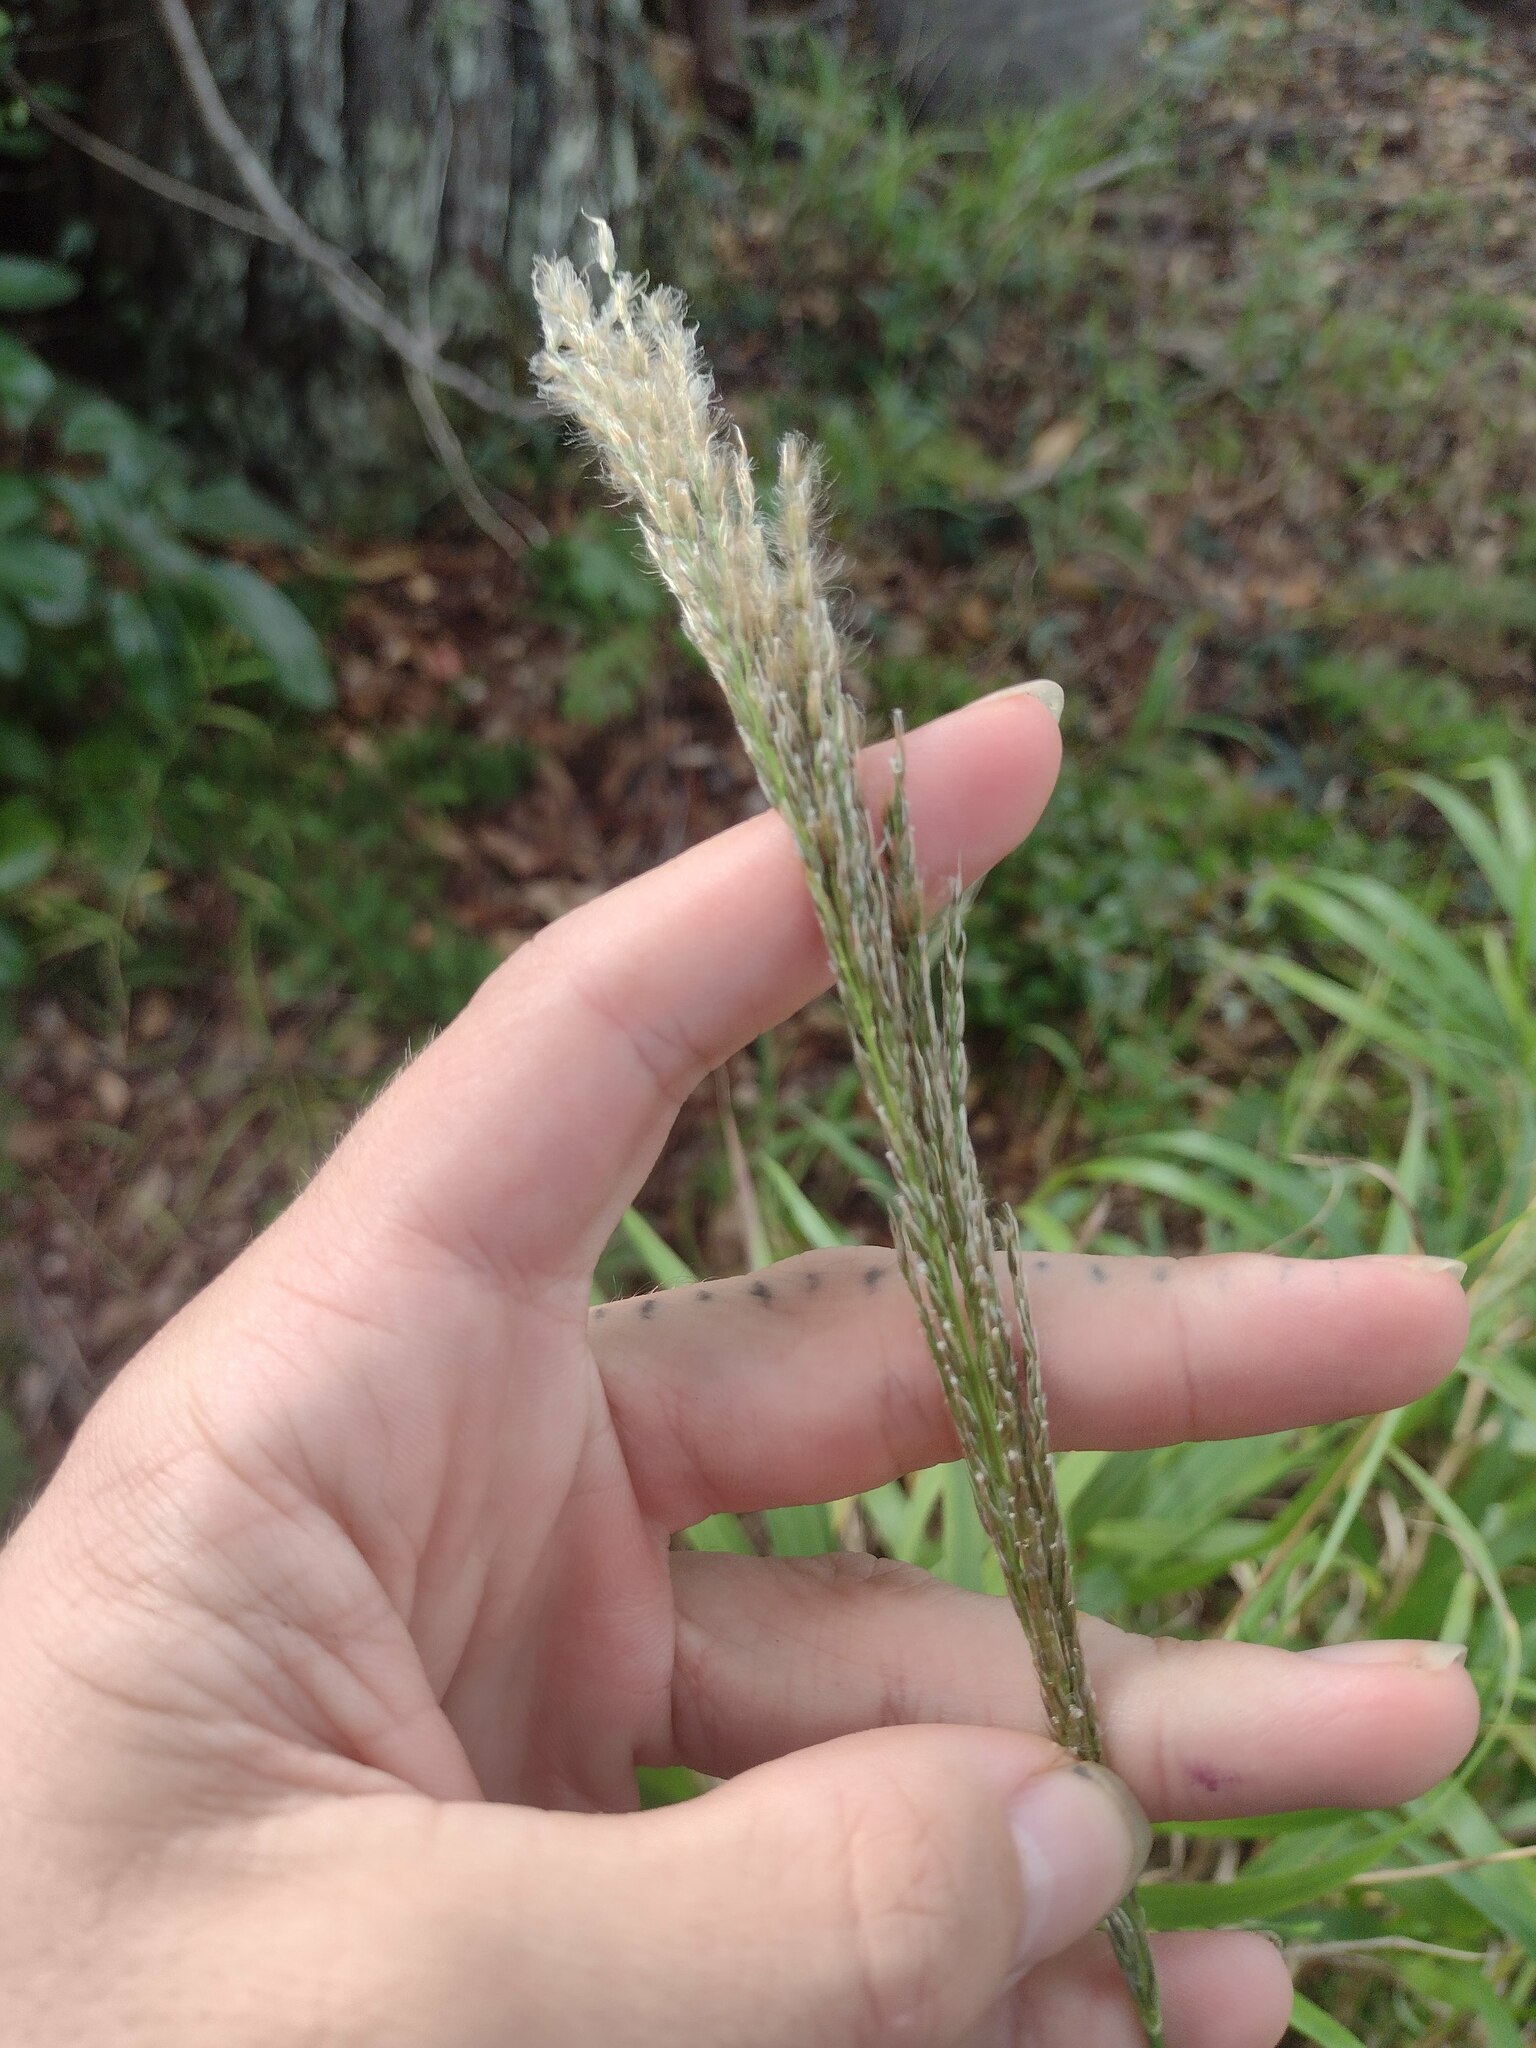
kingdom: Plantae
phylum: Tracheophyta
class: Liliopsida
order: Poales
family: Poaceae
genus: Digitaria
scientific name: Digitaria insularis
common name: Sourgrass
